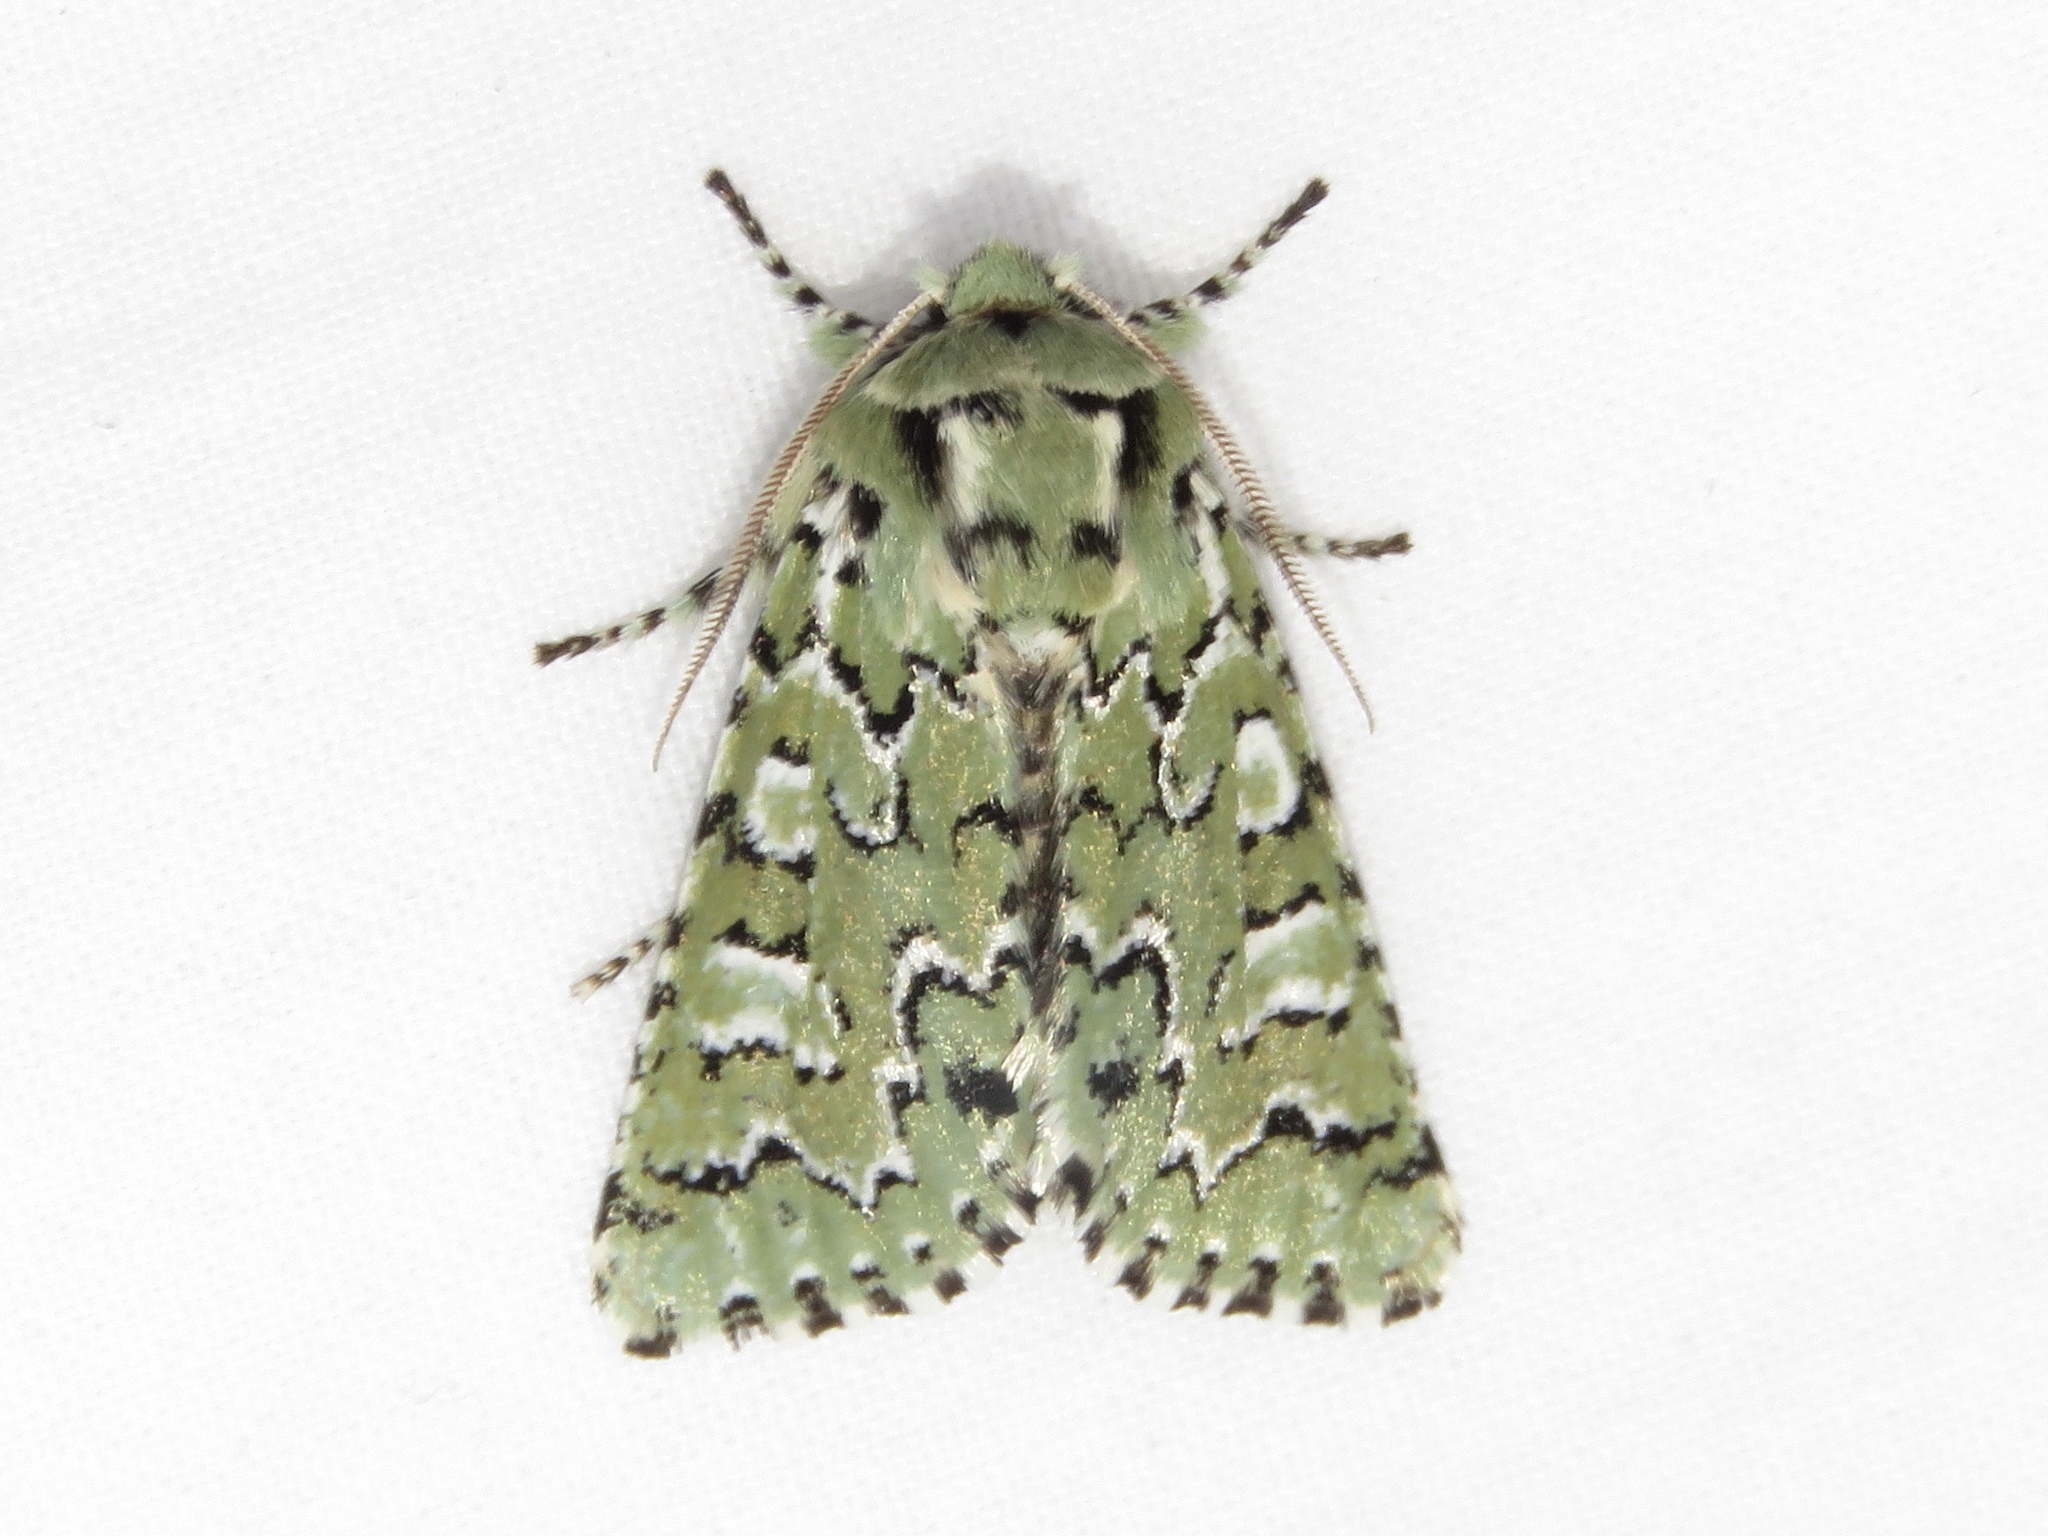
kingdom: Animalia
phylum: Arthropoda
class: Insecta
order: Lepidoptera
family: Noctuidae
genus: Feralia
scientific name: Feralia jocosa
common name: Joker
